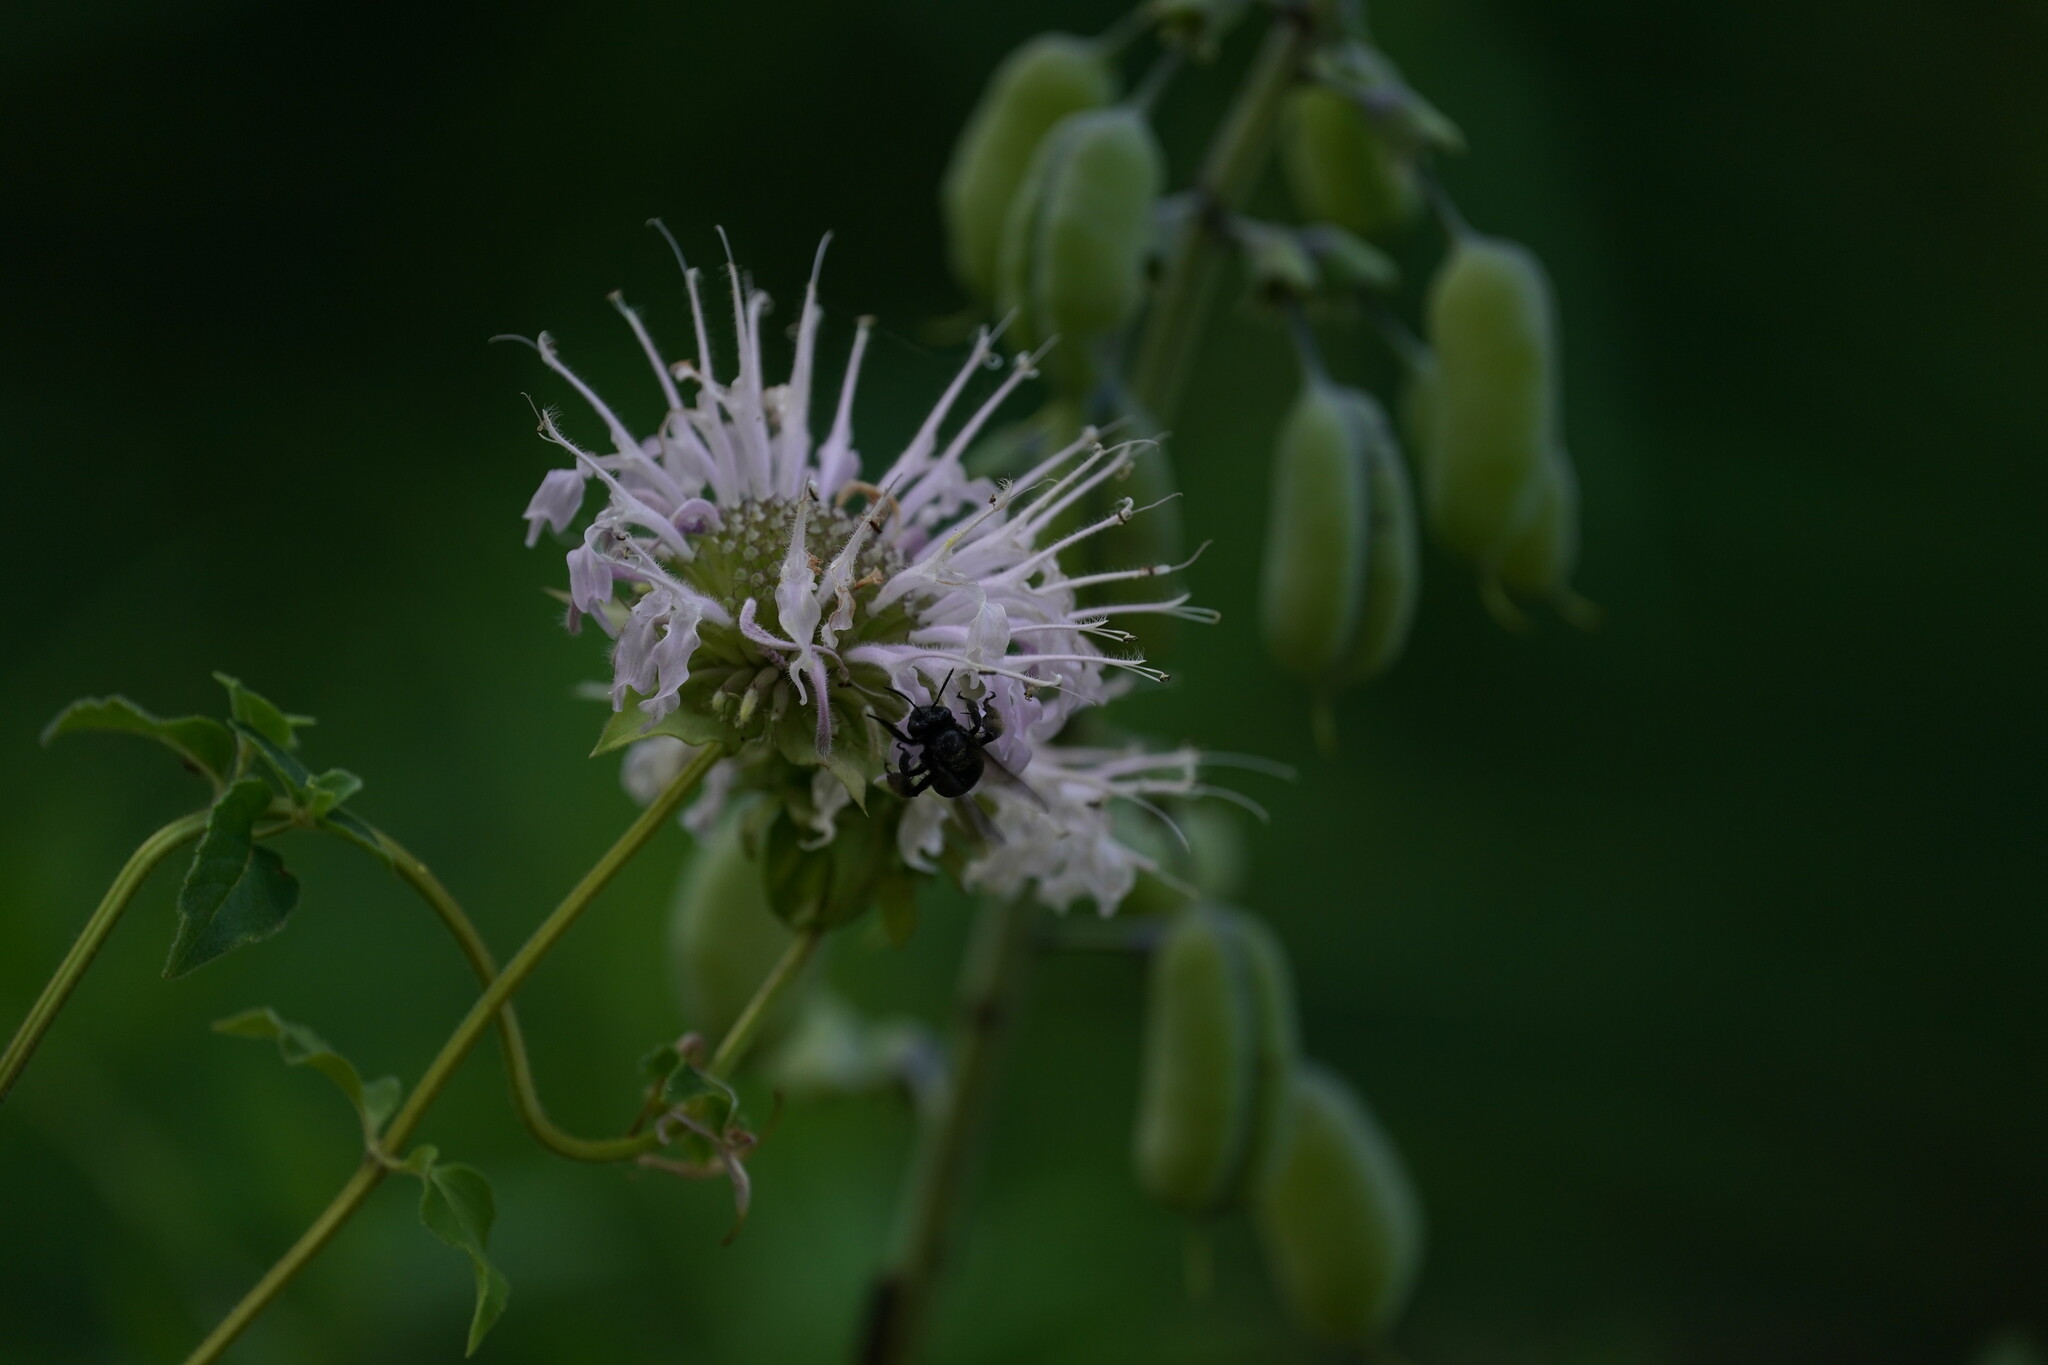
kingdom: Animalia
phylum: Arthropoda
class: Insecta
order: Hymenoptera
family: Apidae
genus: Melissodes
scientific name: Melissodes bimaculatus
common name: Two-spotted long-horned bee
